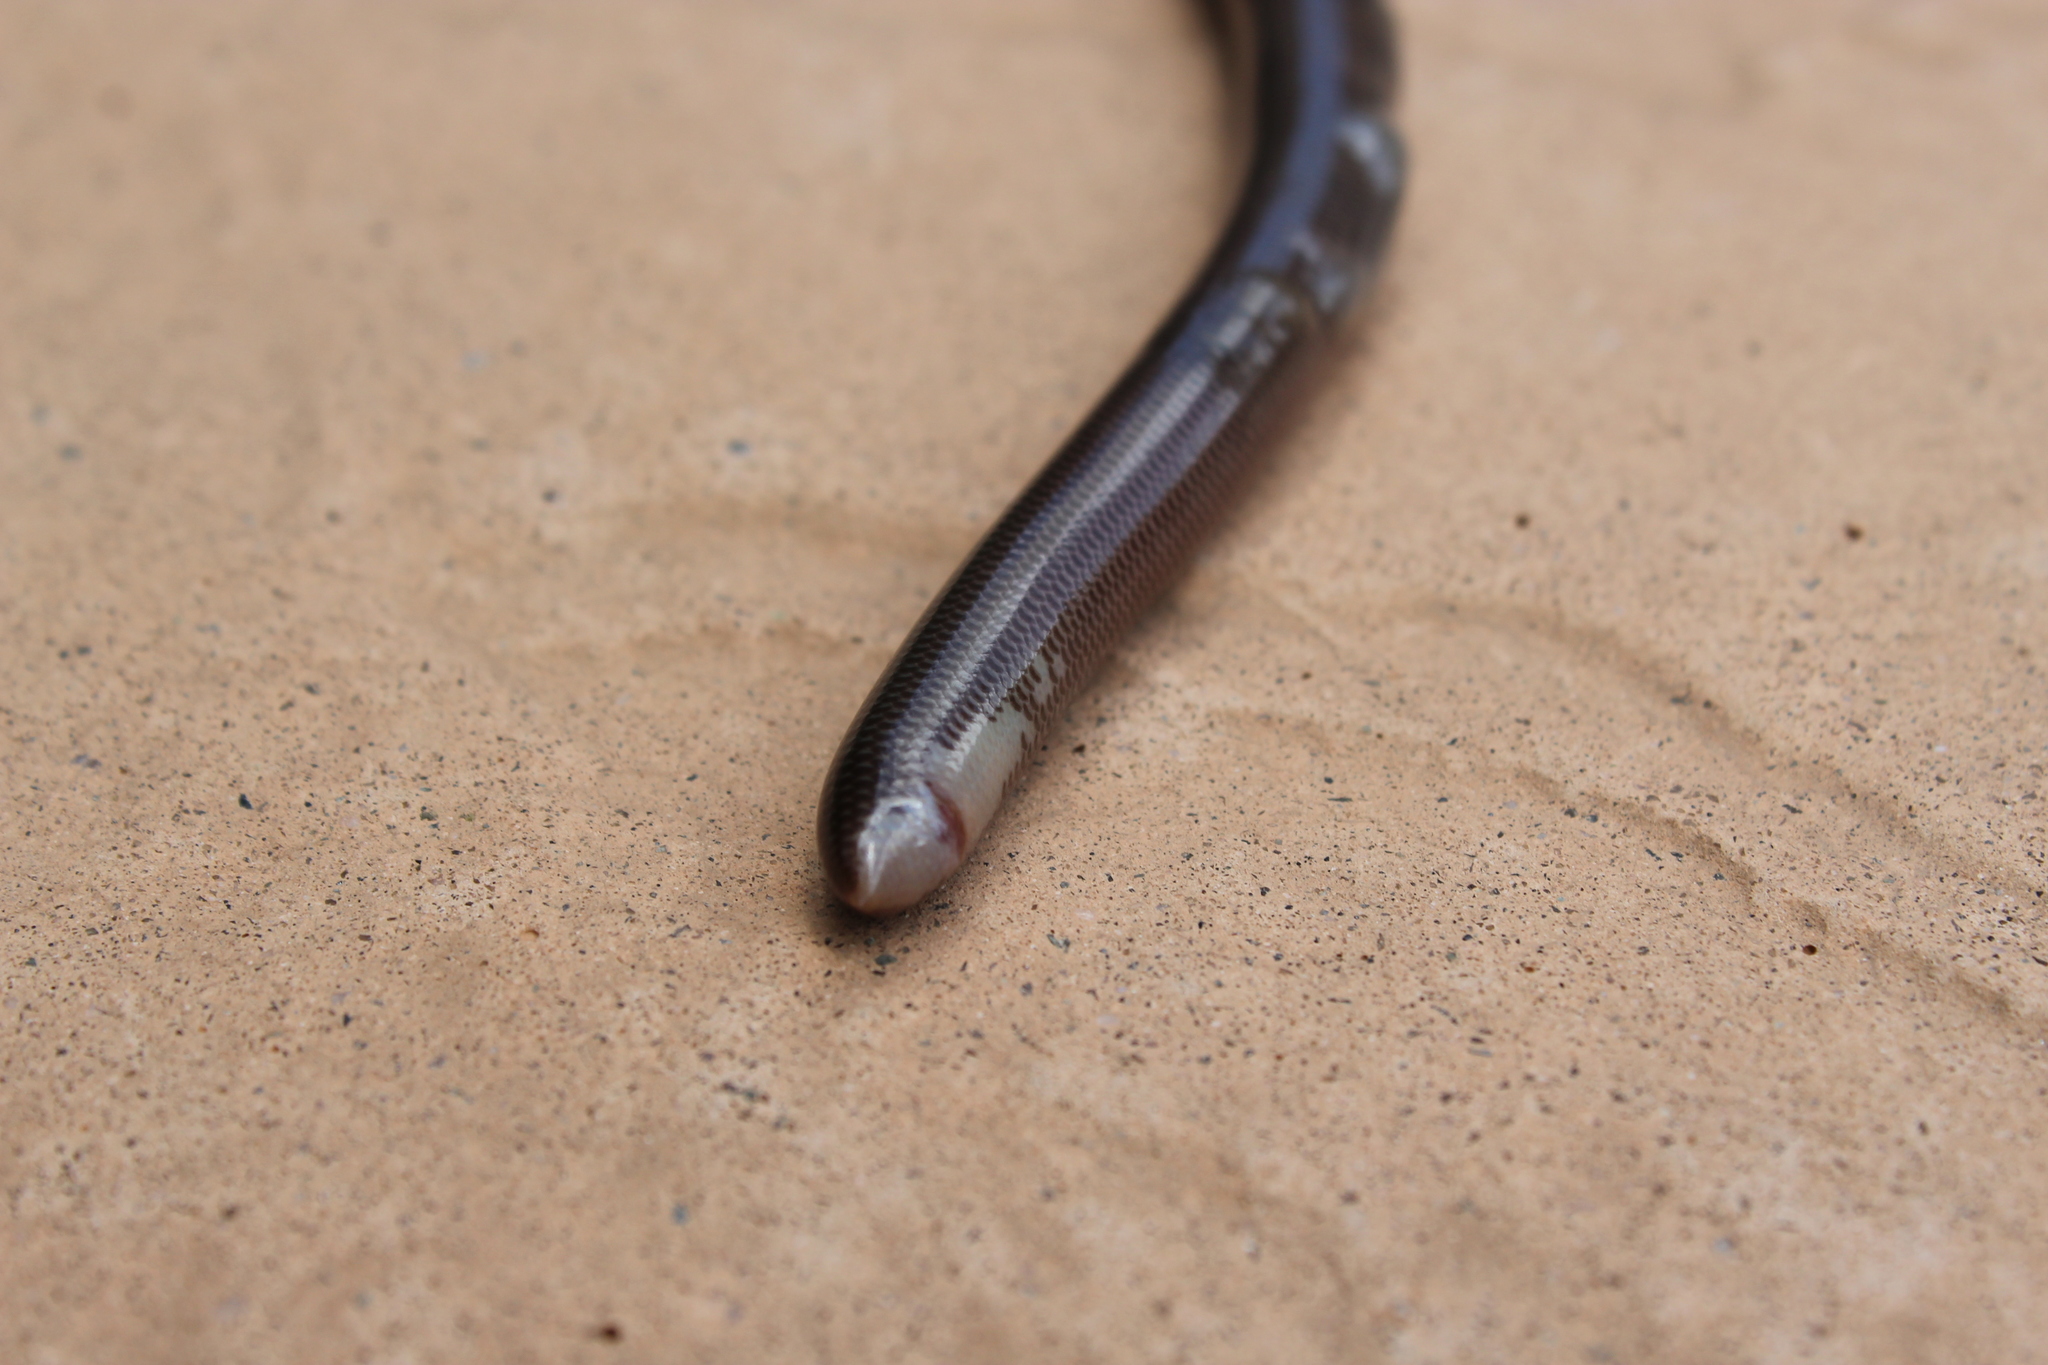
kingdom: Animalia
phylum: Chordata
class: Squamata
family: Typhlopidae
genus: Afrotyphlops
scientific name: Afrotyphlops bibronii
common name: Bibron's blind snake
